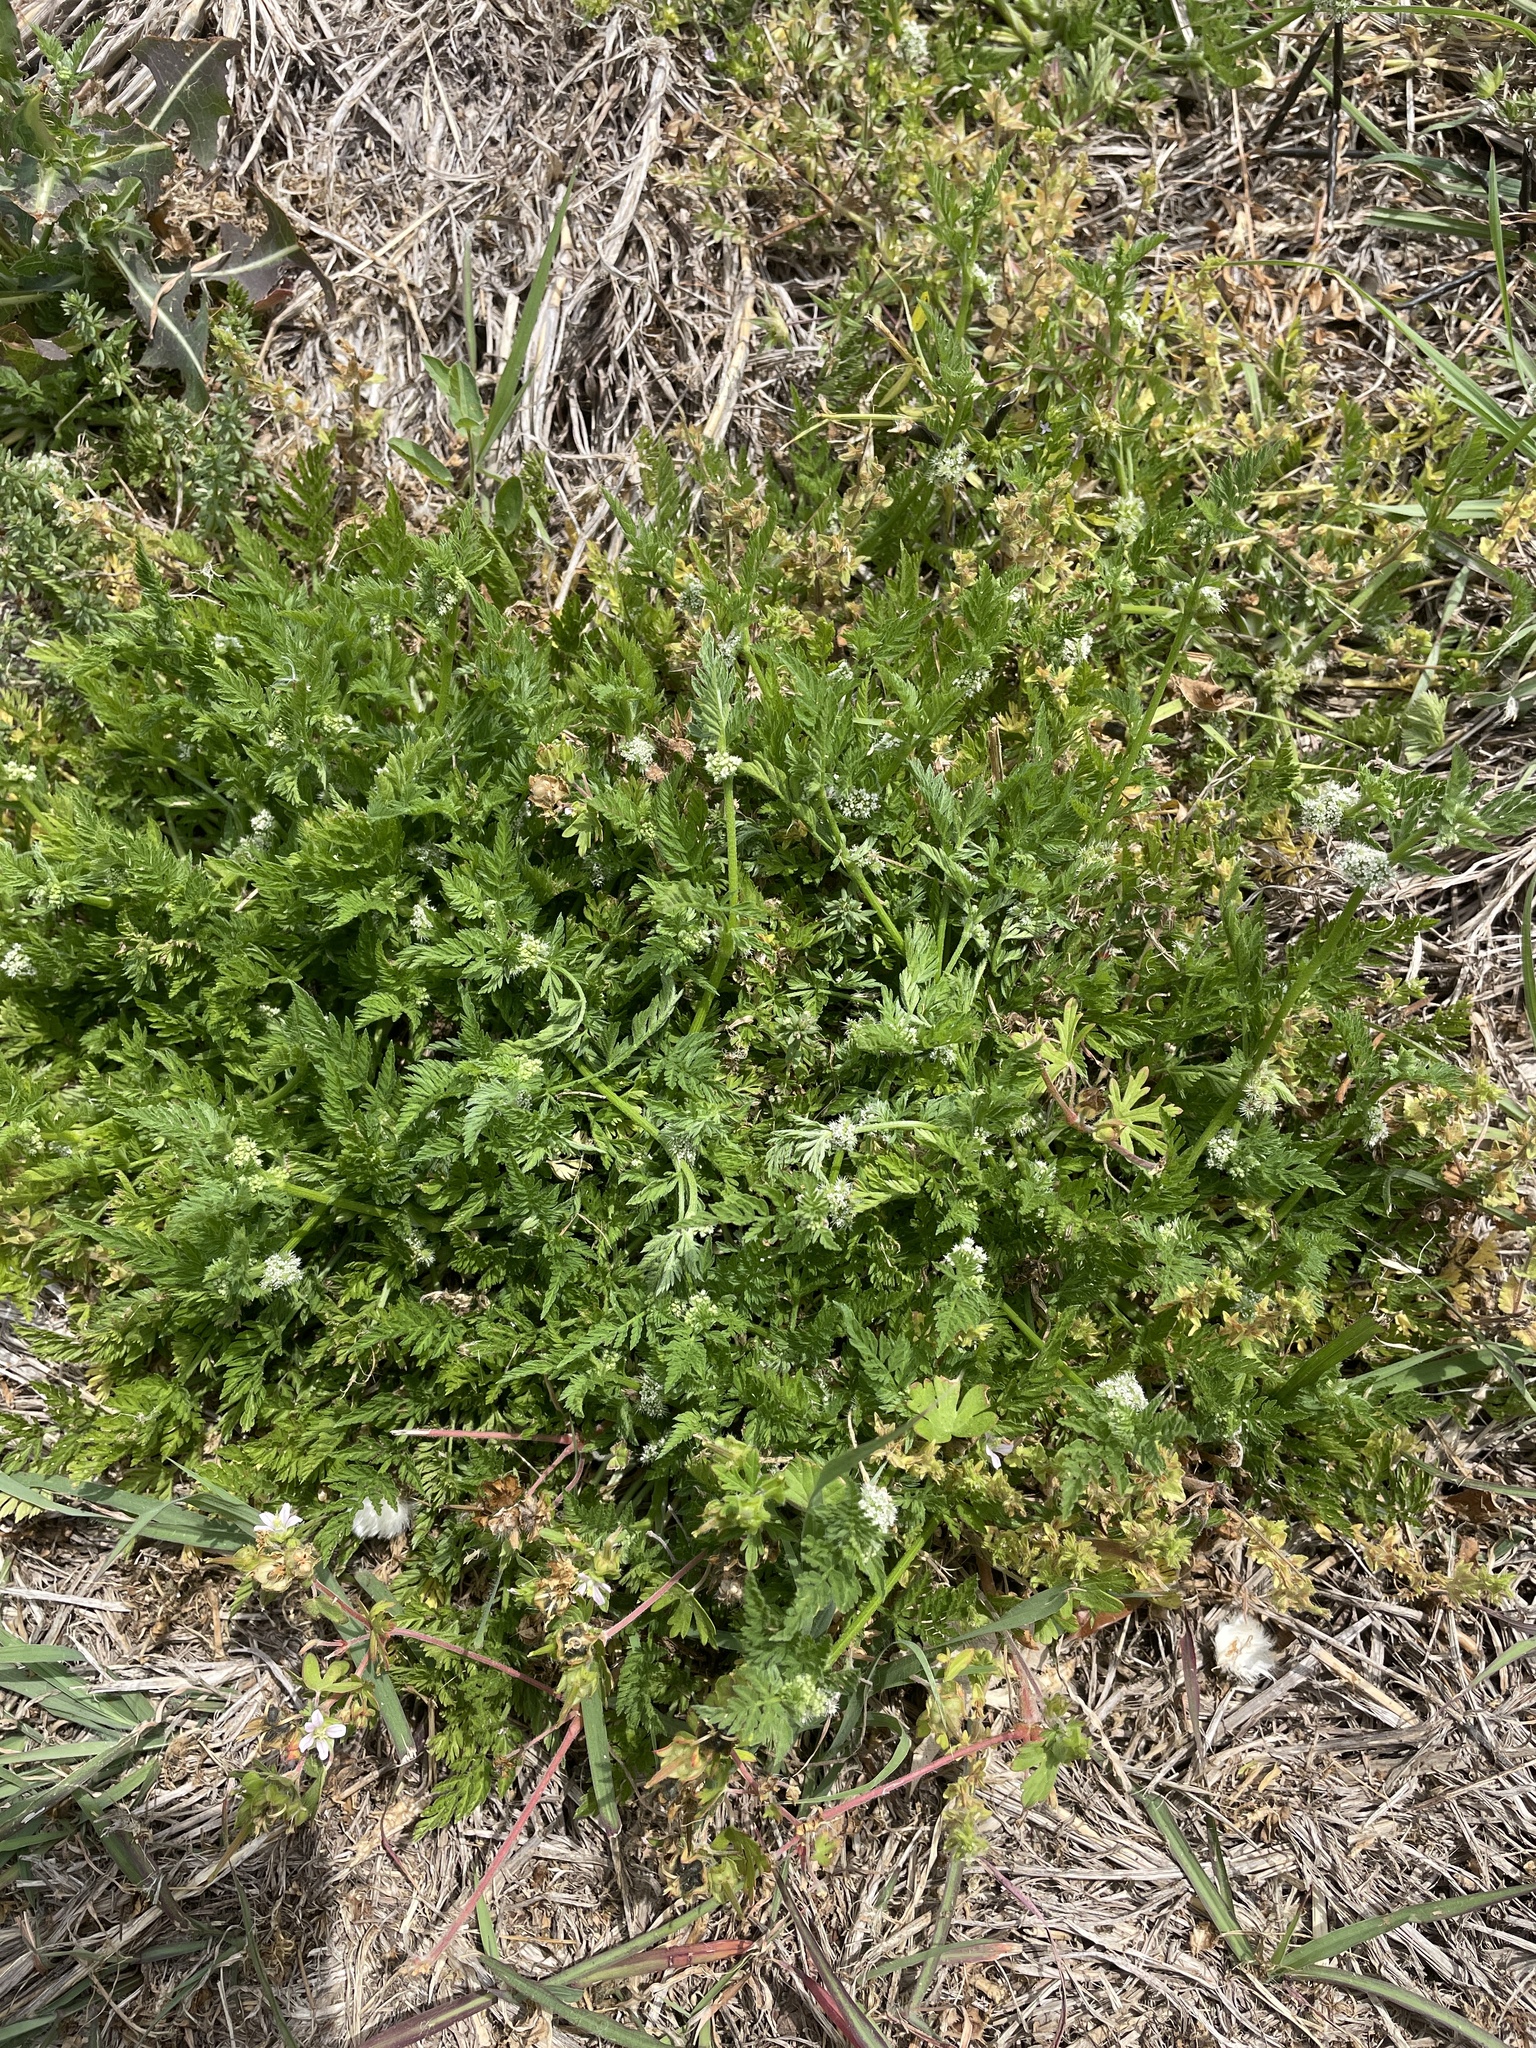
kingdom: Plantae
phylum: Tracheophyta
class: Magnoliopsida
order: Apiales
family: Apiaceae
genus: Torilis
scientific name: Torilis nodosa
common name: Knotted hedge-parsley
